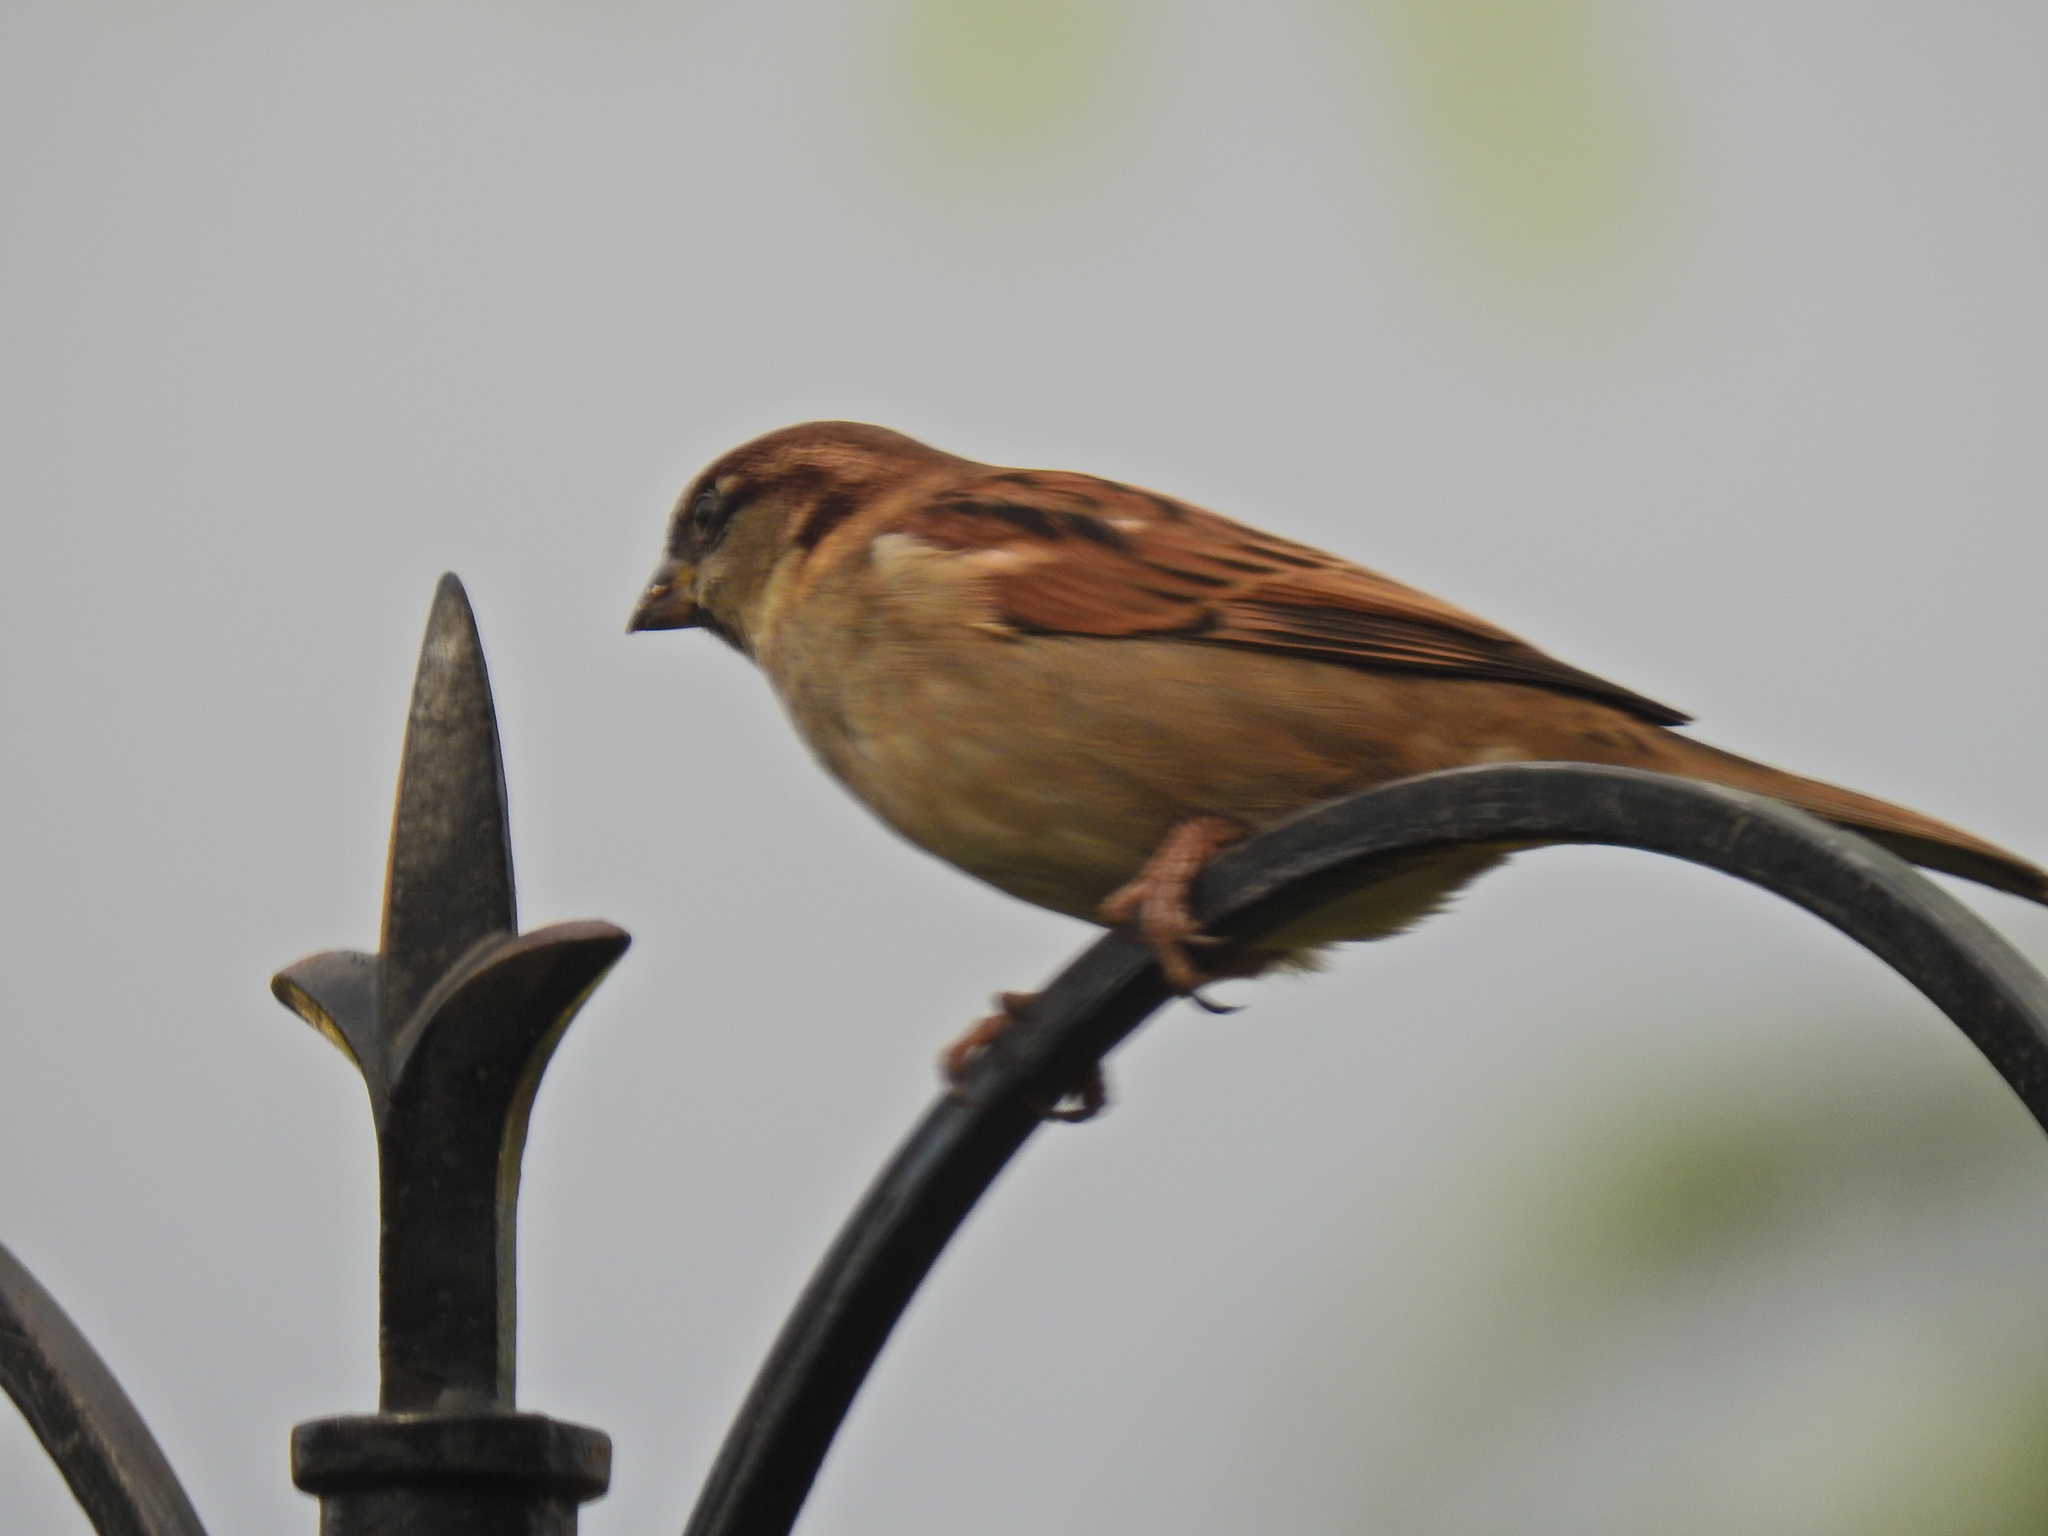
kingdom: Animalia
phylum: Chordata
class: Aves
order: Passeriformes
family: Passeridae
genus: Passer
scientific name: Passer domesticus
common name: House sparrow
